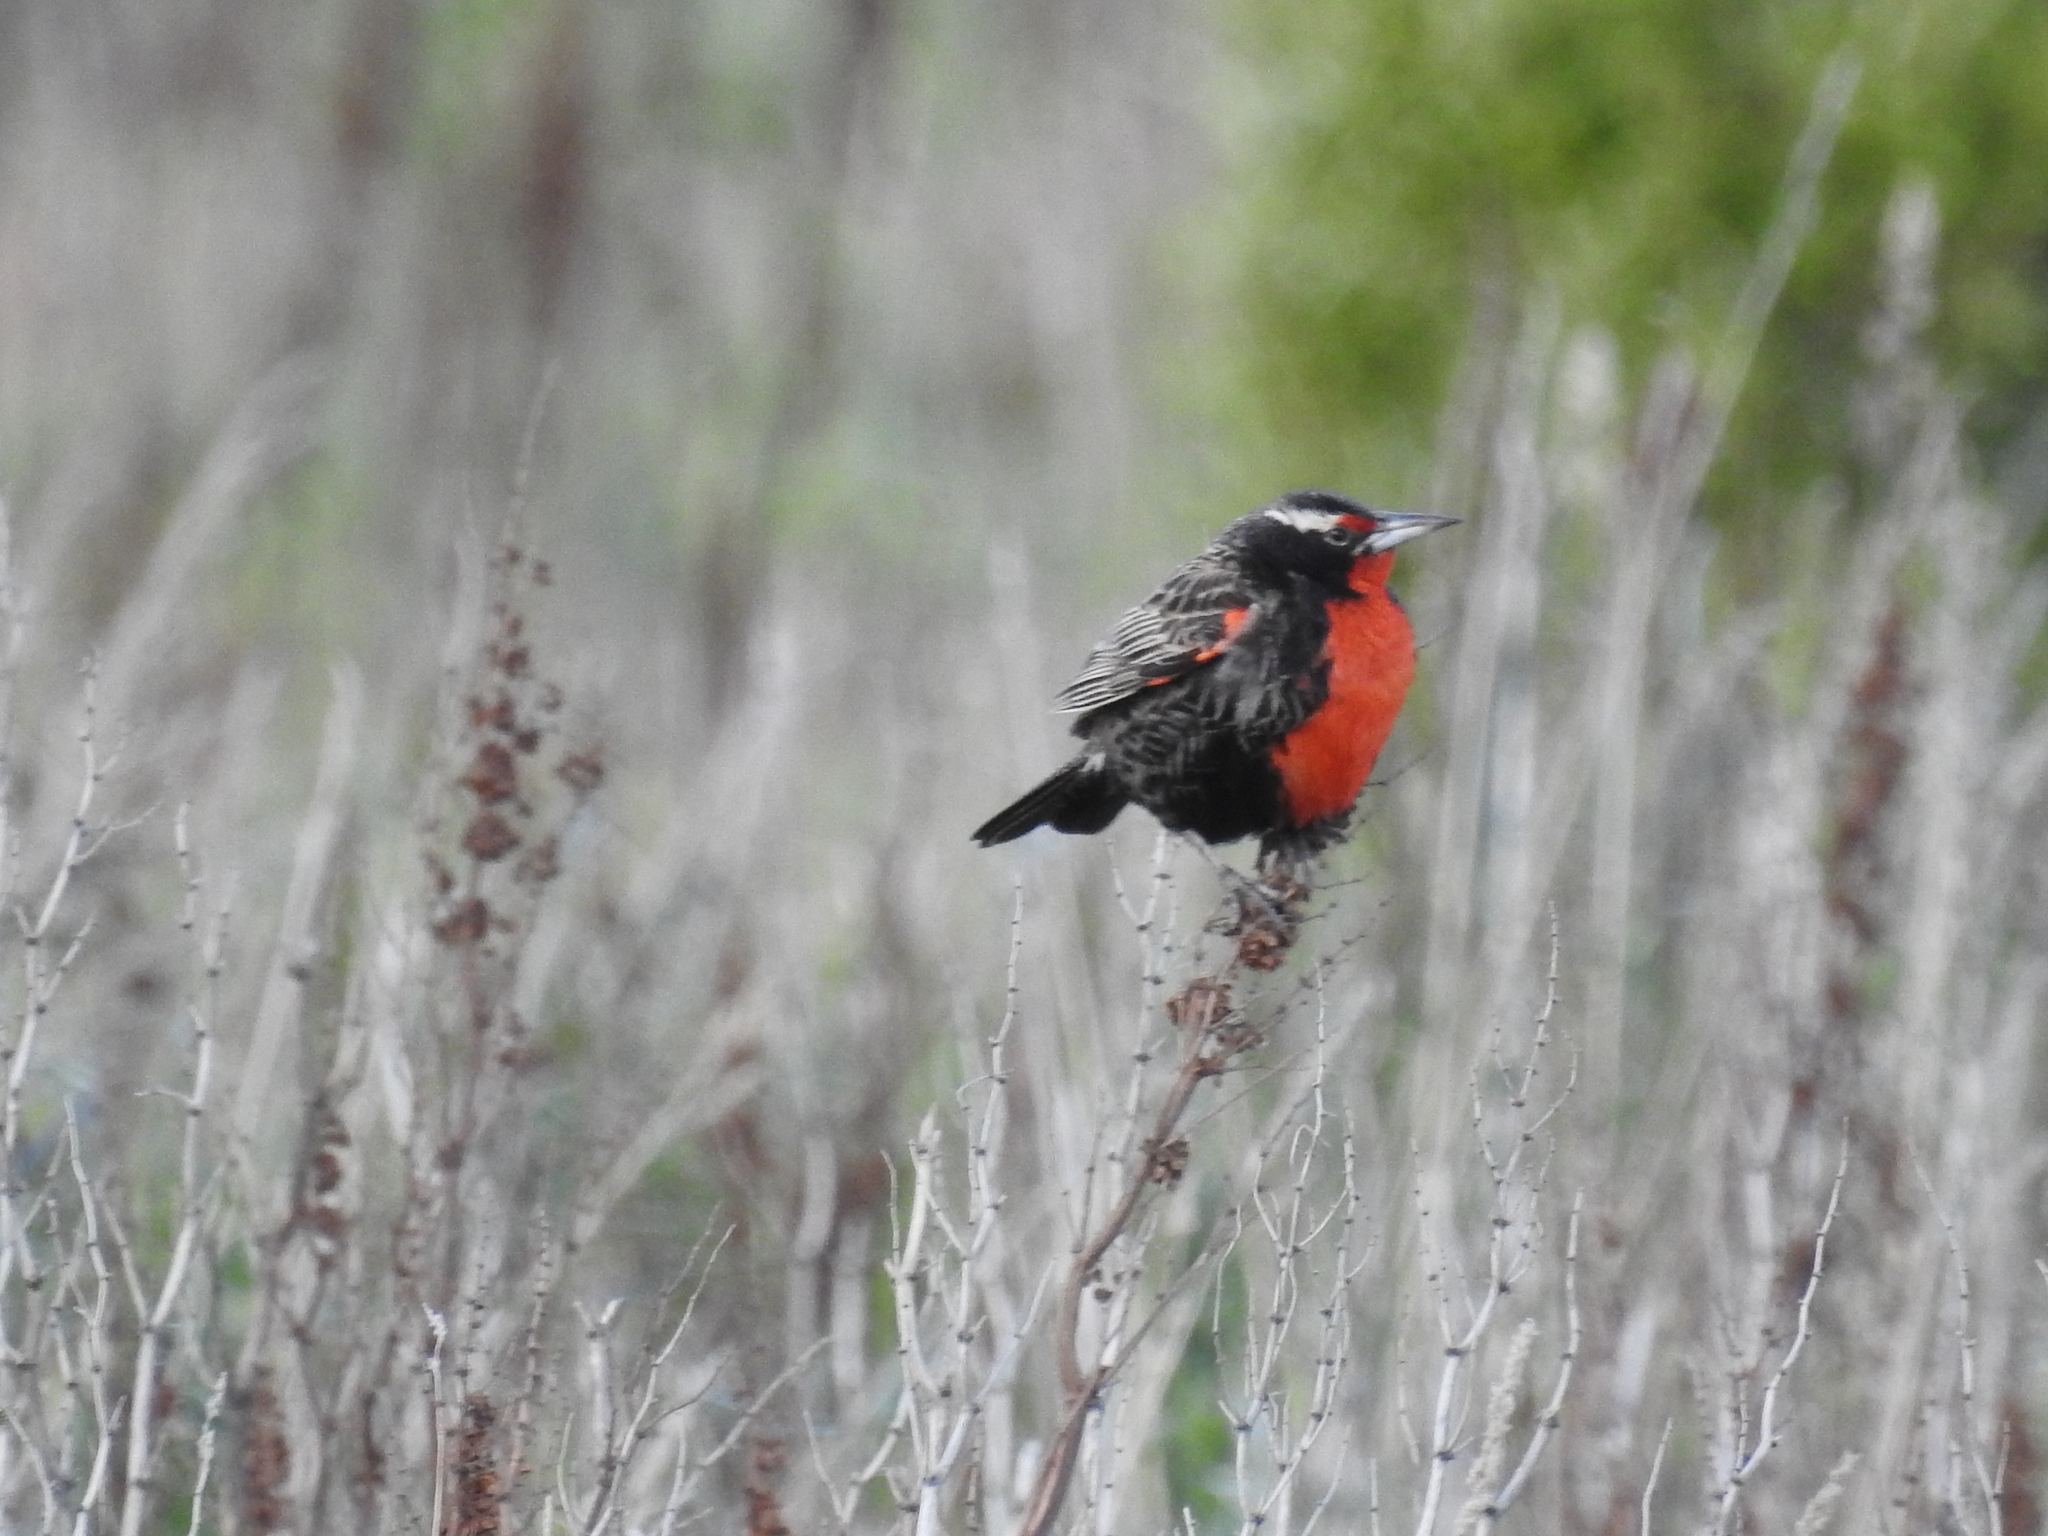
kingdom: Animalia
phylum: Chordata
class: Aves
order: Passeriformes
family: Icteridae
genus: Sturnella
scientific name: Sturnella loyca
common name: Long-tailed meadowlark
